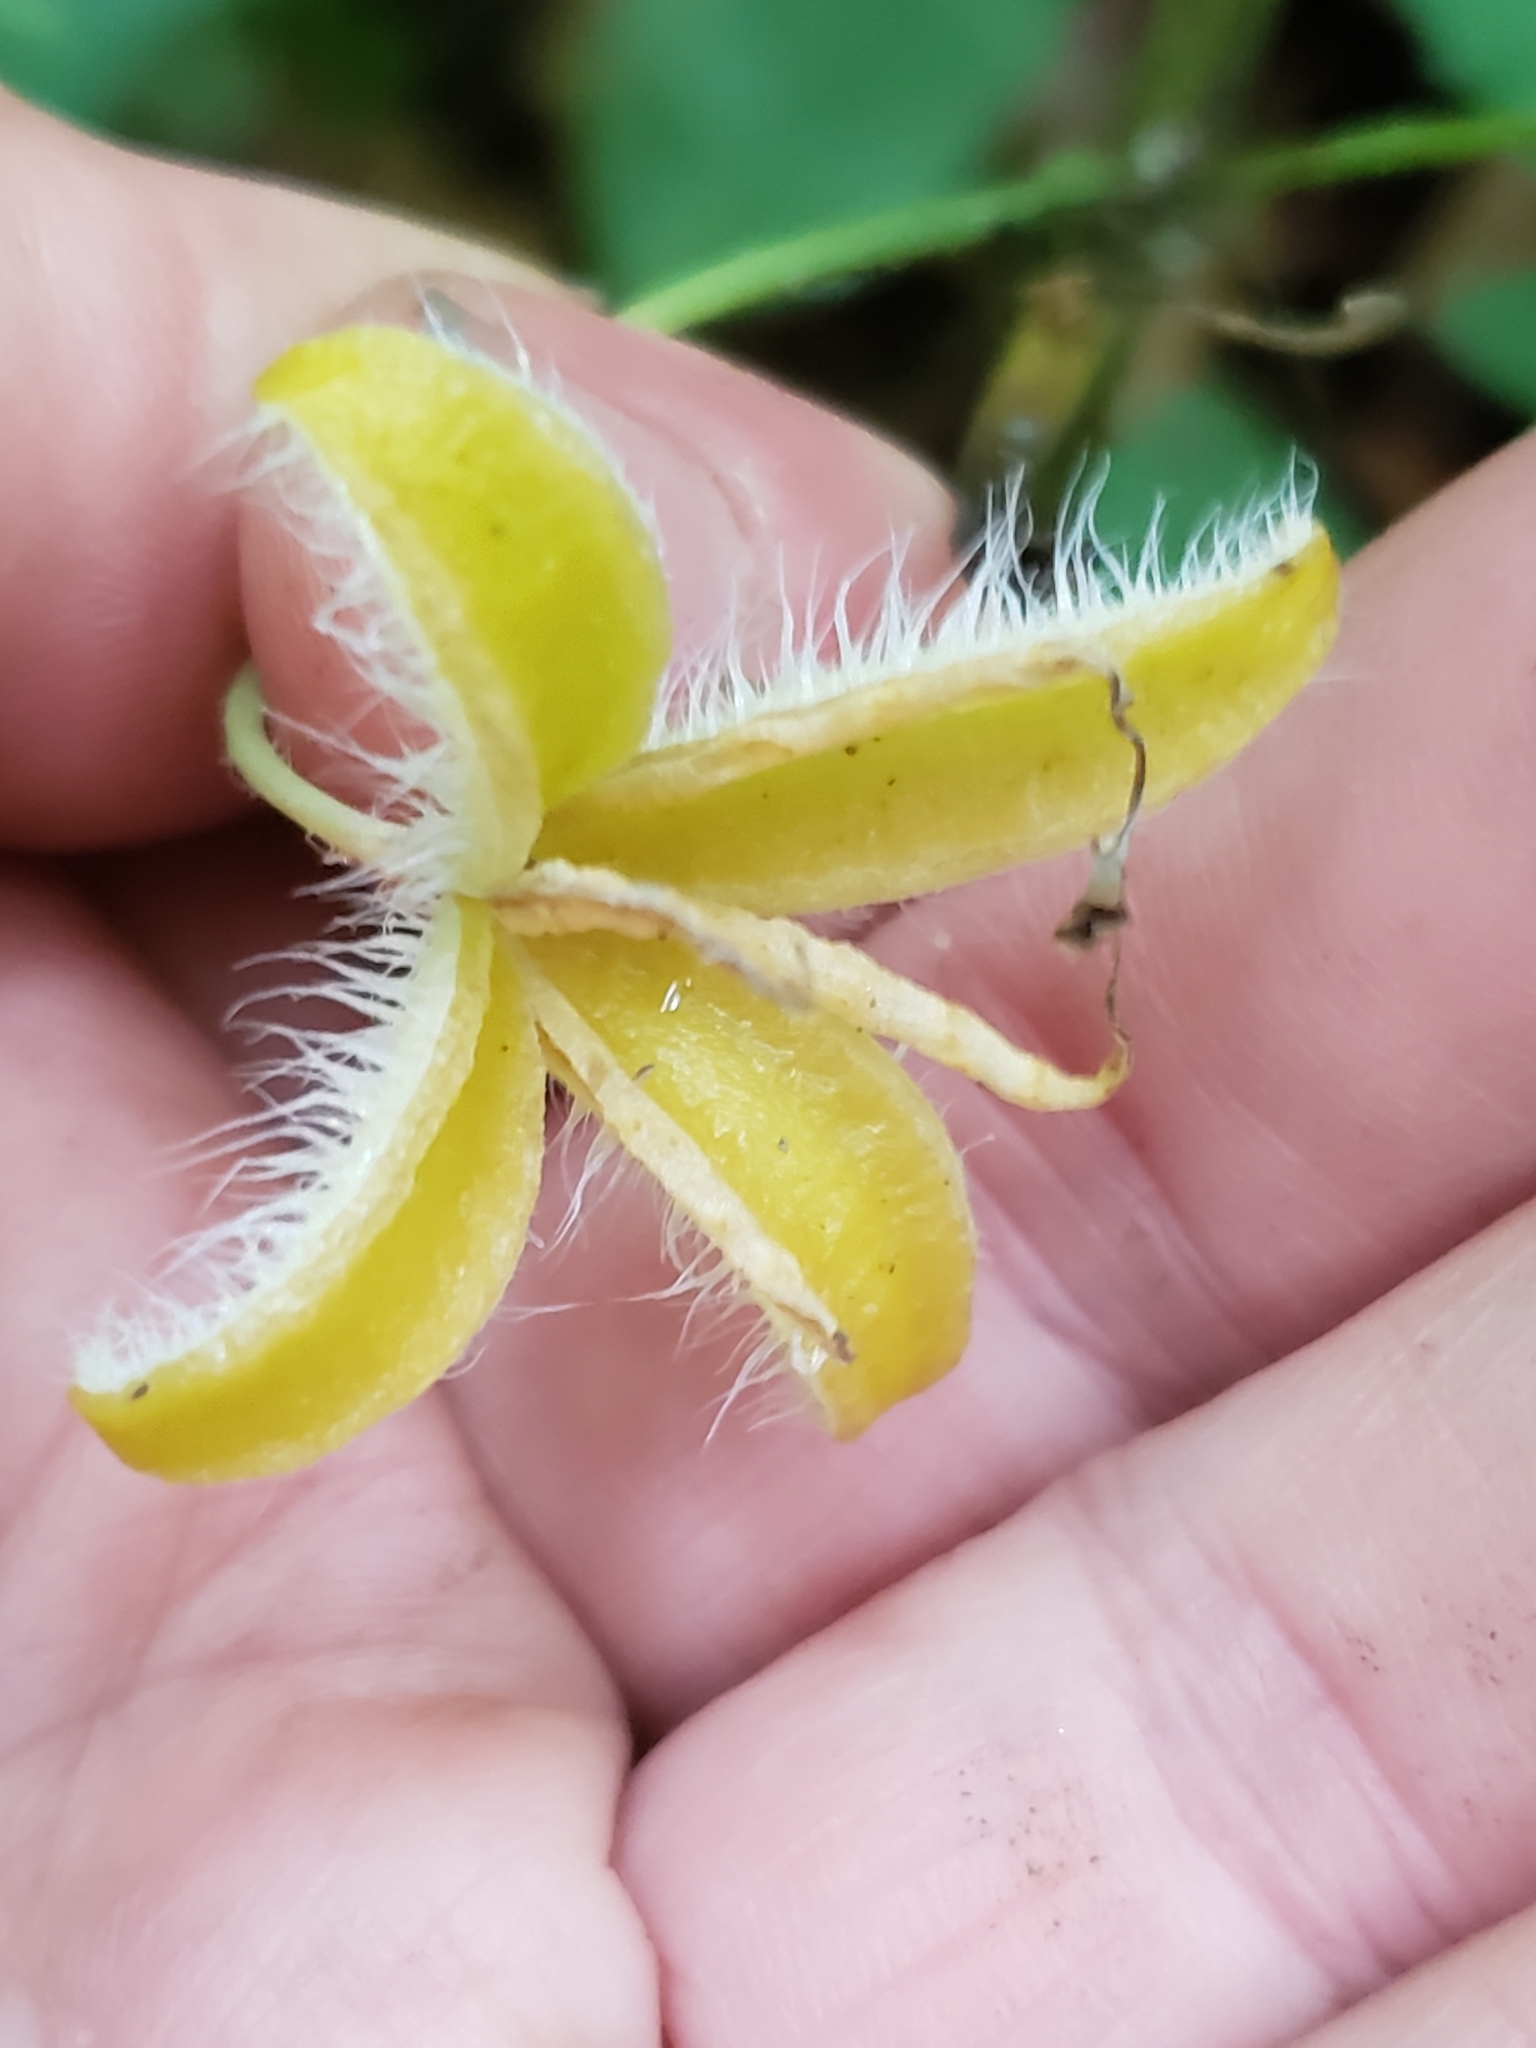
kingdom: Plantae
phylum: Tracheophyta
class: Magnoliopsida
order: Ranunculales
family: Papaveraceae
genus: Stylophorum
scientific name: Stylophorum diphyllum
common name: Celandine poppy
